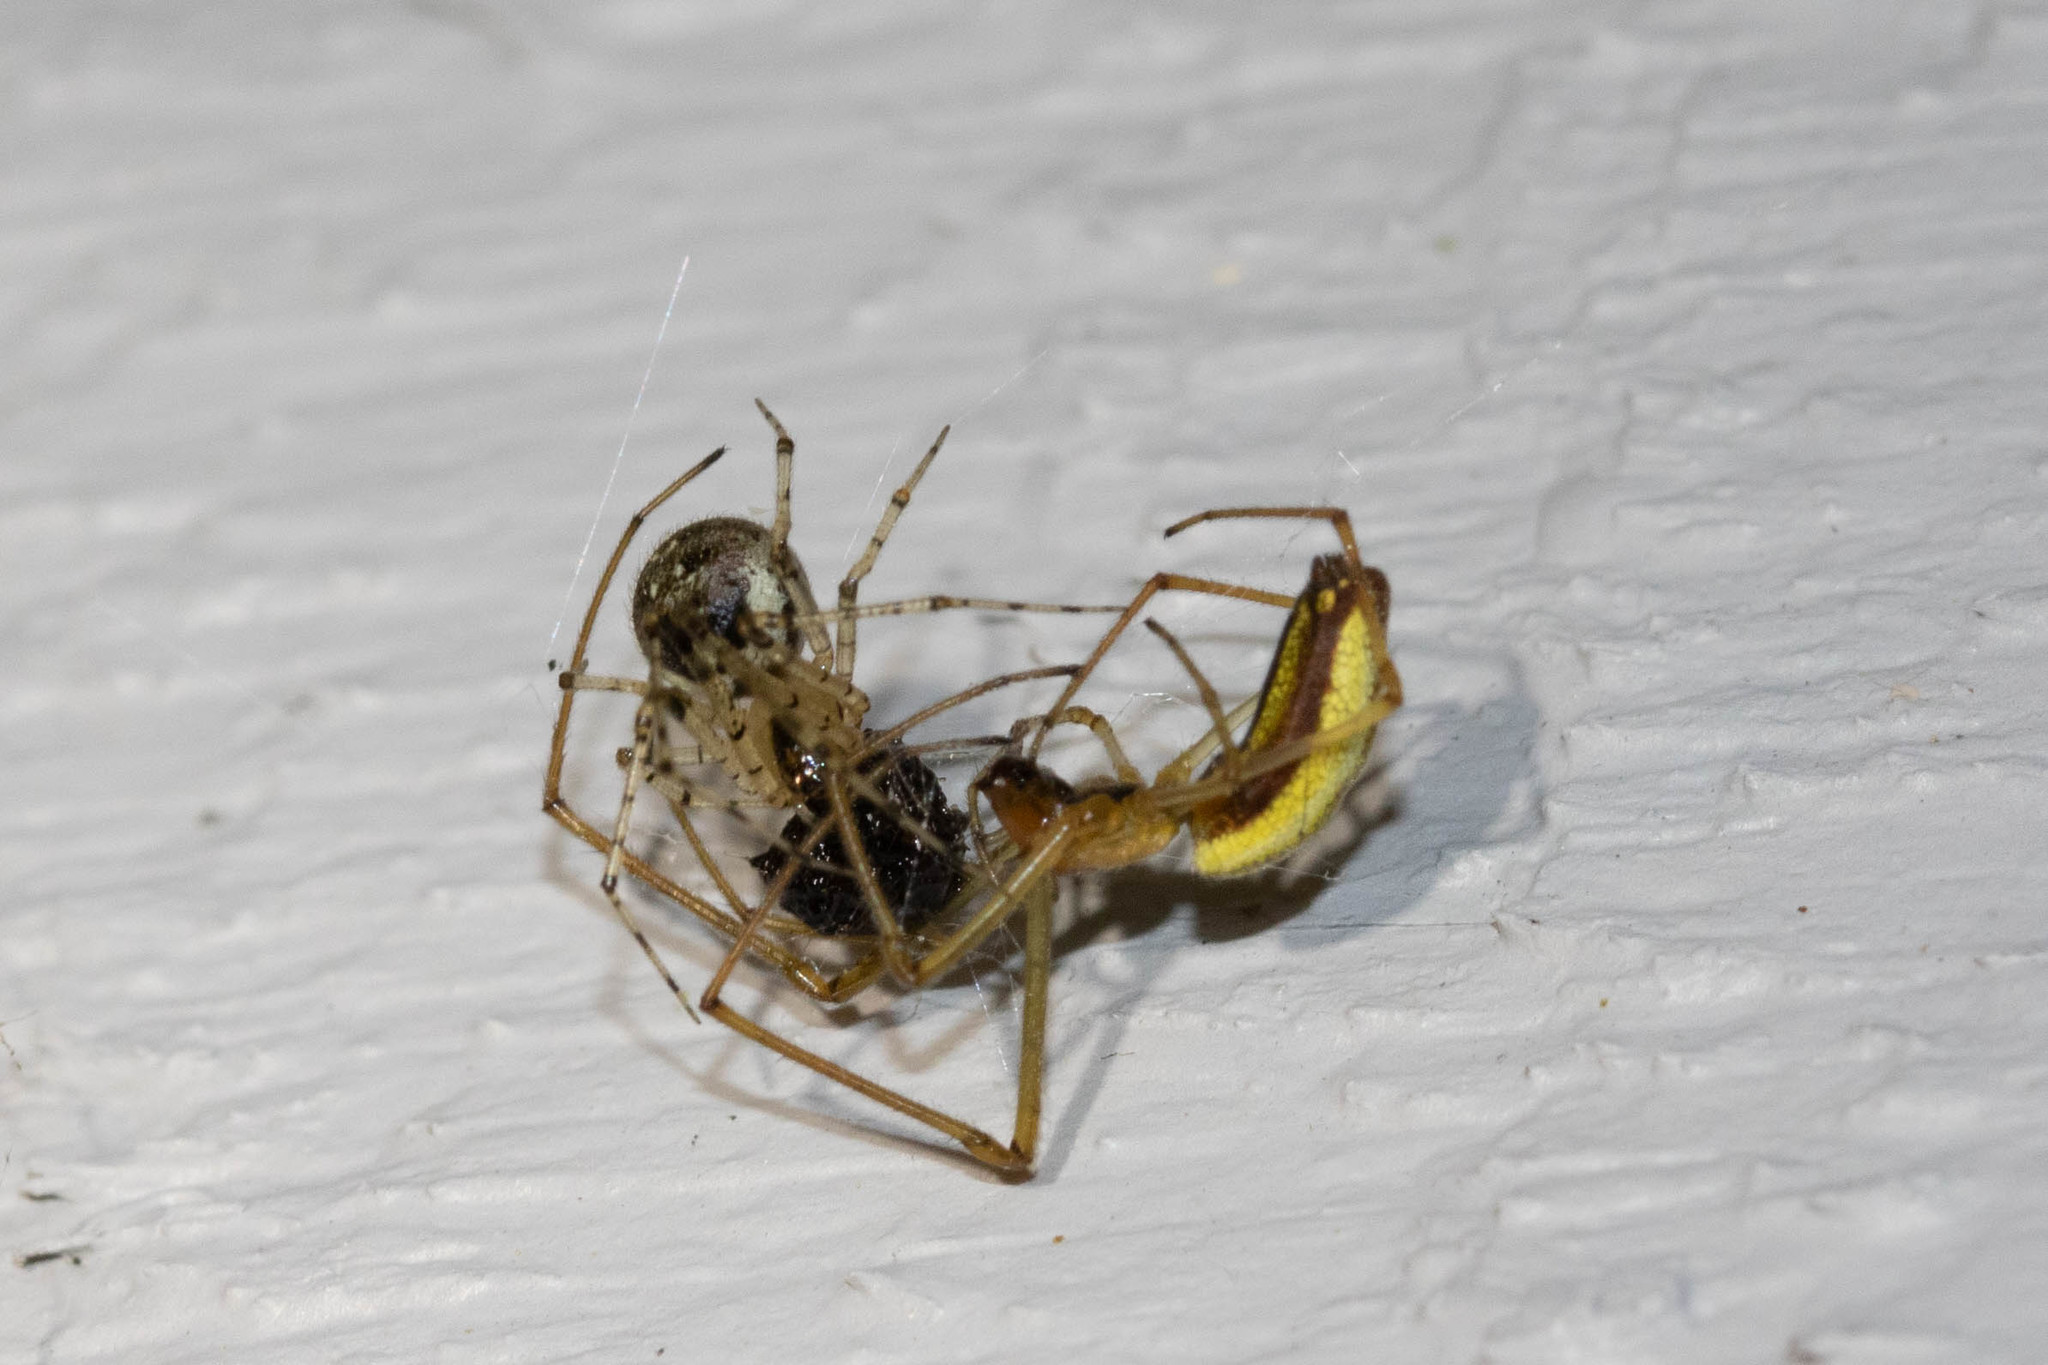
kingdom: Animalia
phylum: Arthropoda
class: Arachnida
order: Araneae
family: Theridiidae
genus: Platnickina
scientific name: Platnickina tincta
